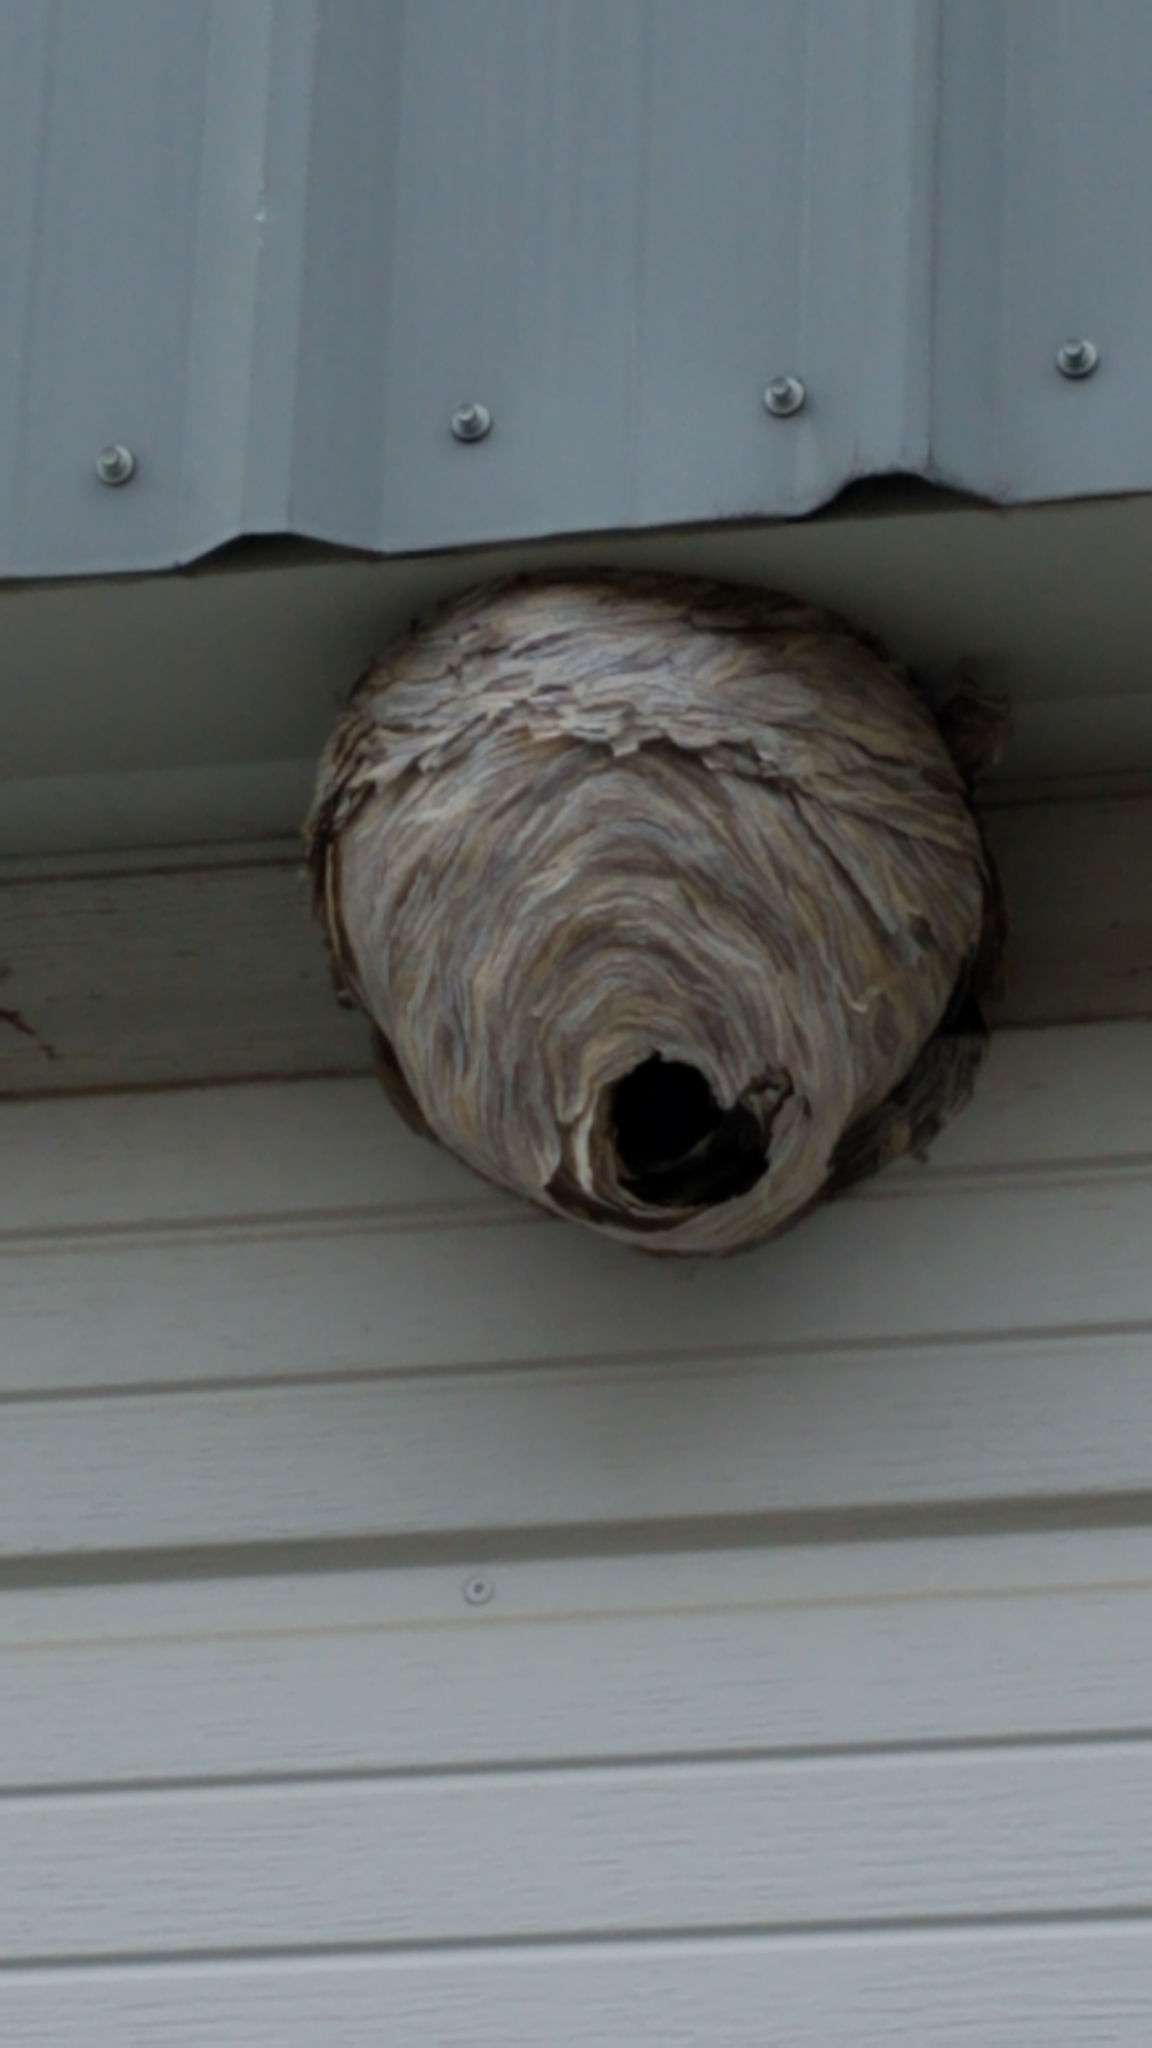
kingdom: Animalia
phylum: Arthropoda
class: Insecta
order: Hymenoptera
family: Vespidae
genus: Dolichovespula
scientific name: Dolichovespula
